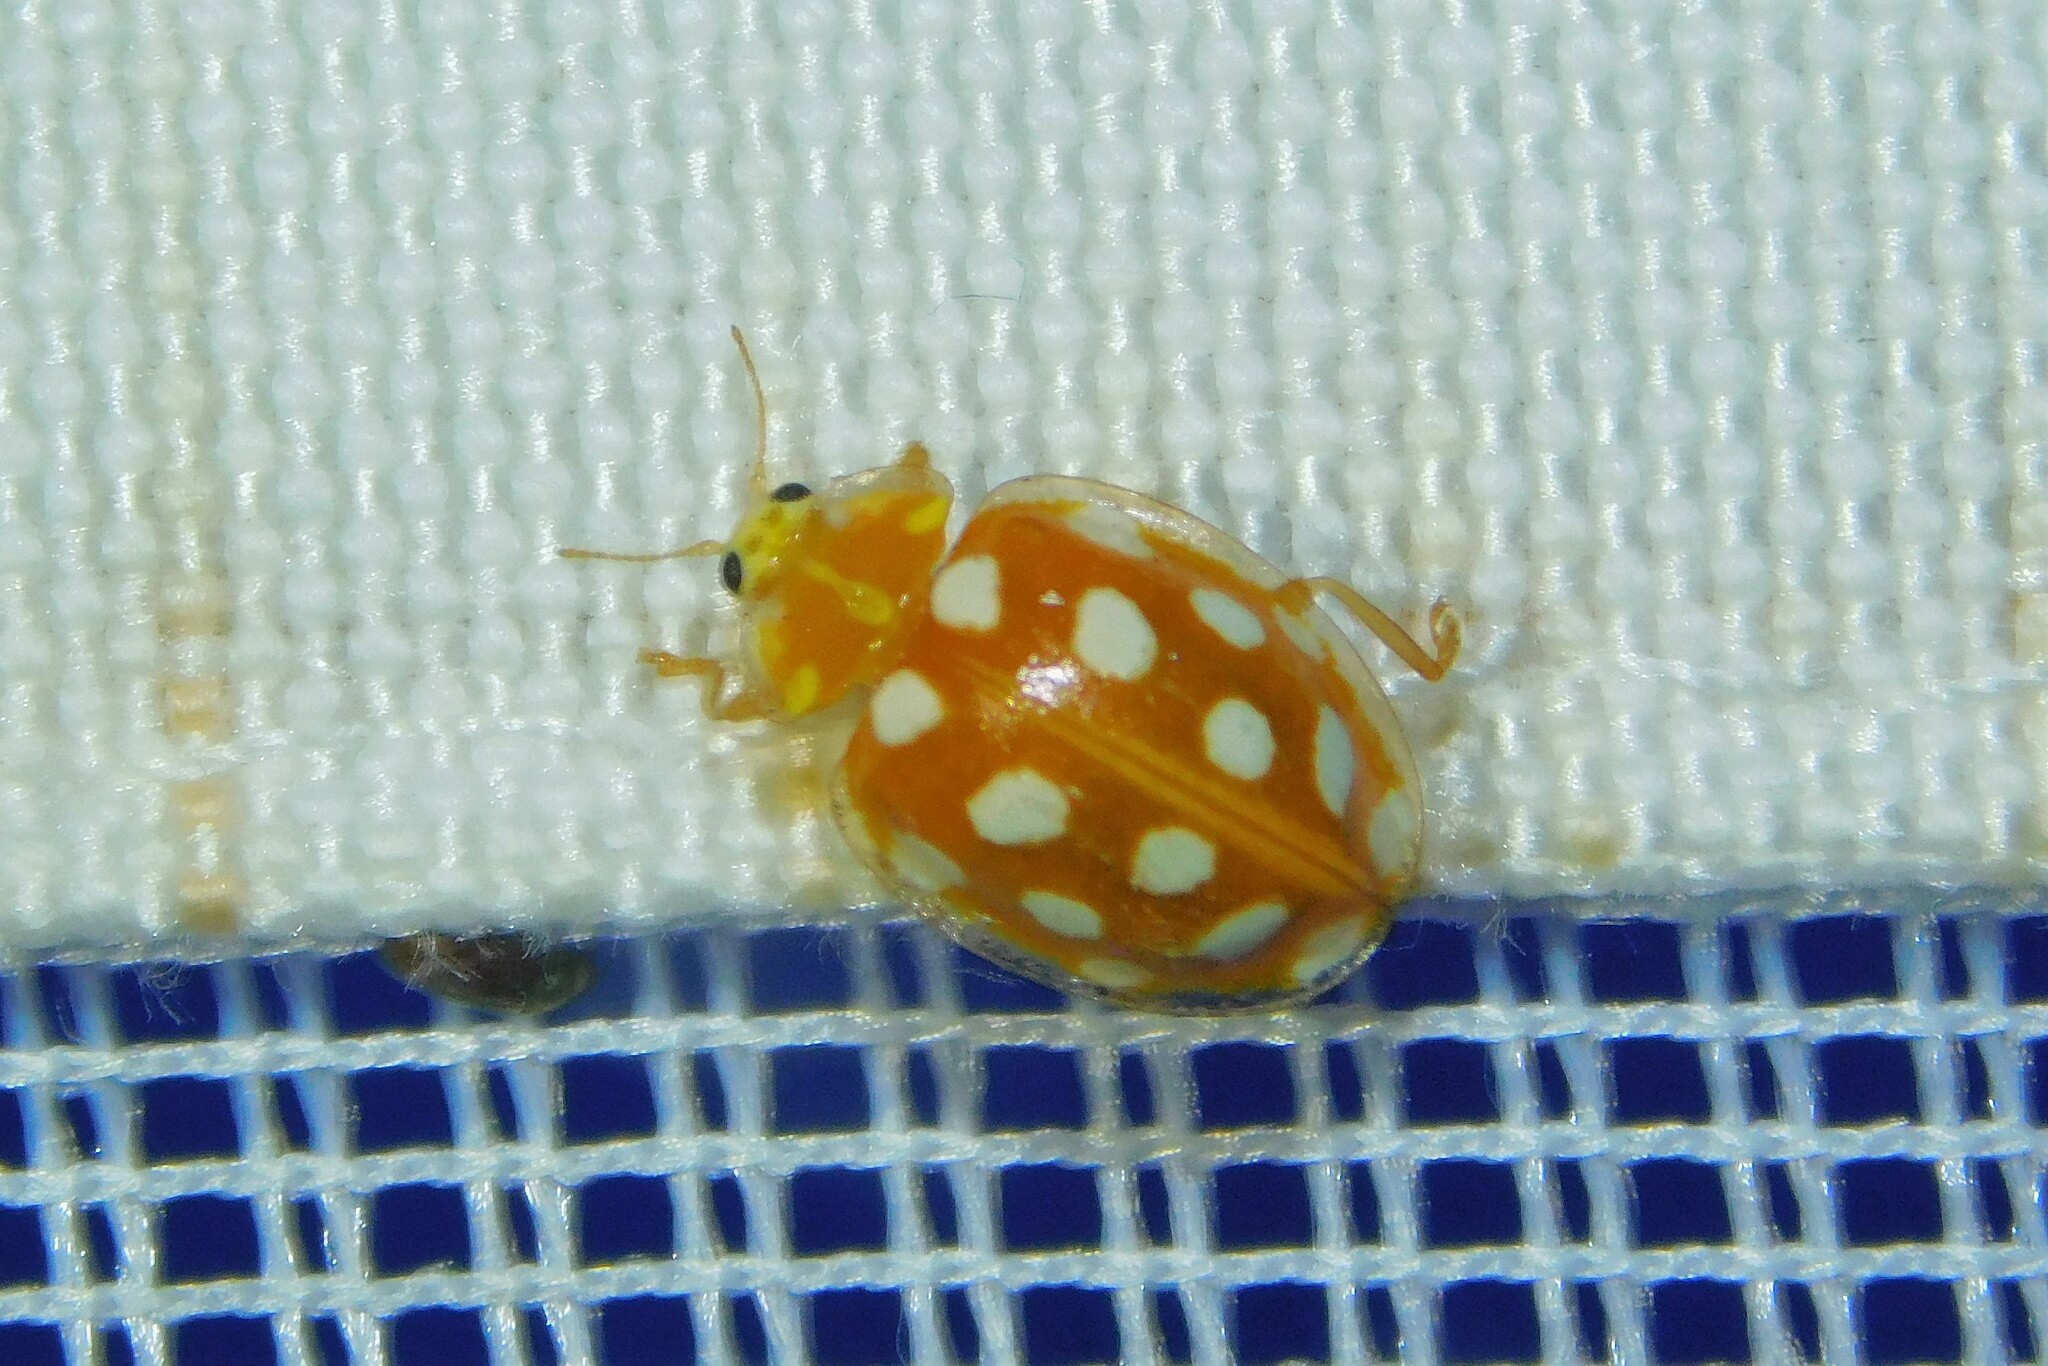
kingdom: Animalia
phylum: Arthropoda
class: Insecta
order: Coleoptera
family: Coccinellidae
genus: Halyzia
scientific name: Halyzia sedecimguttata
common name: Orange ladybird
